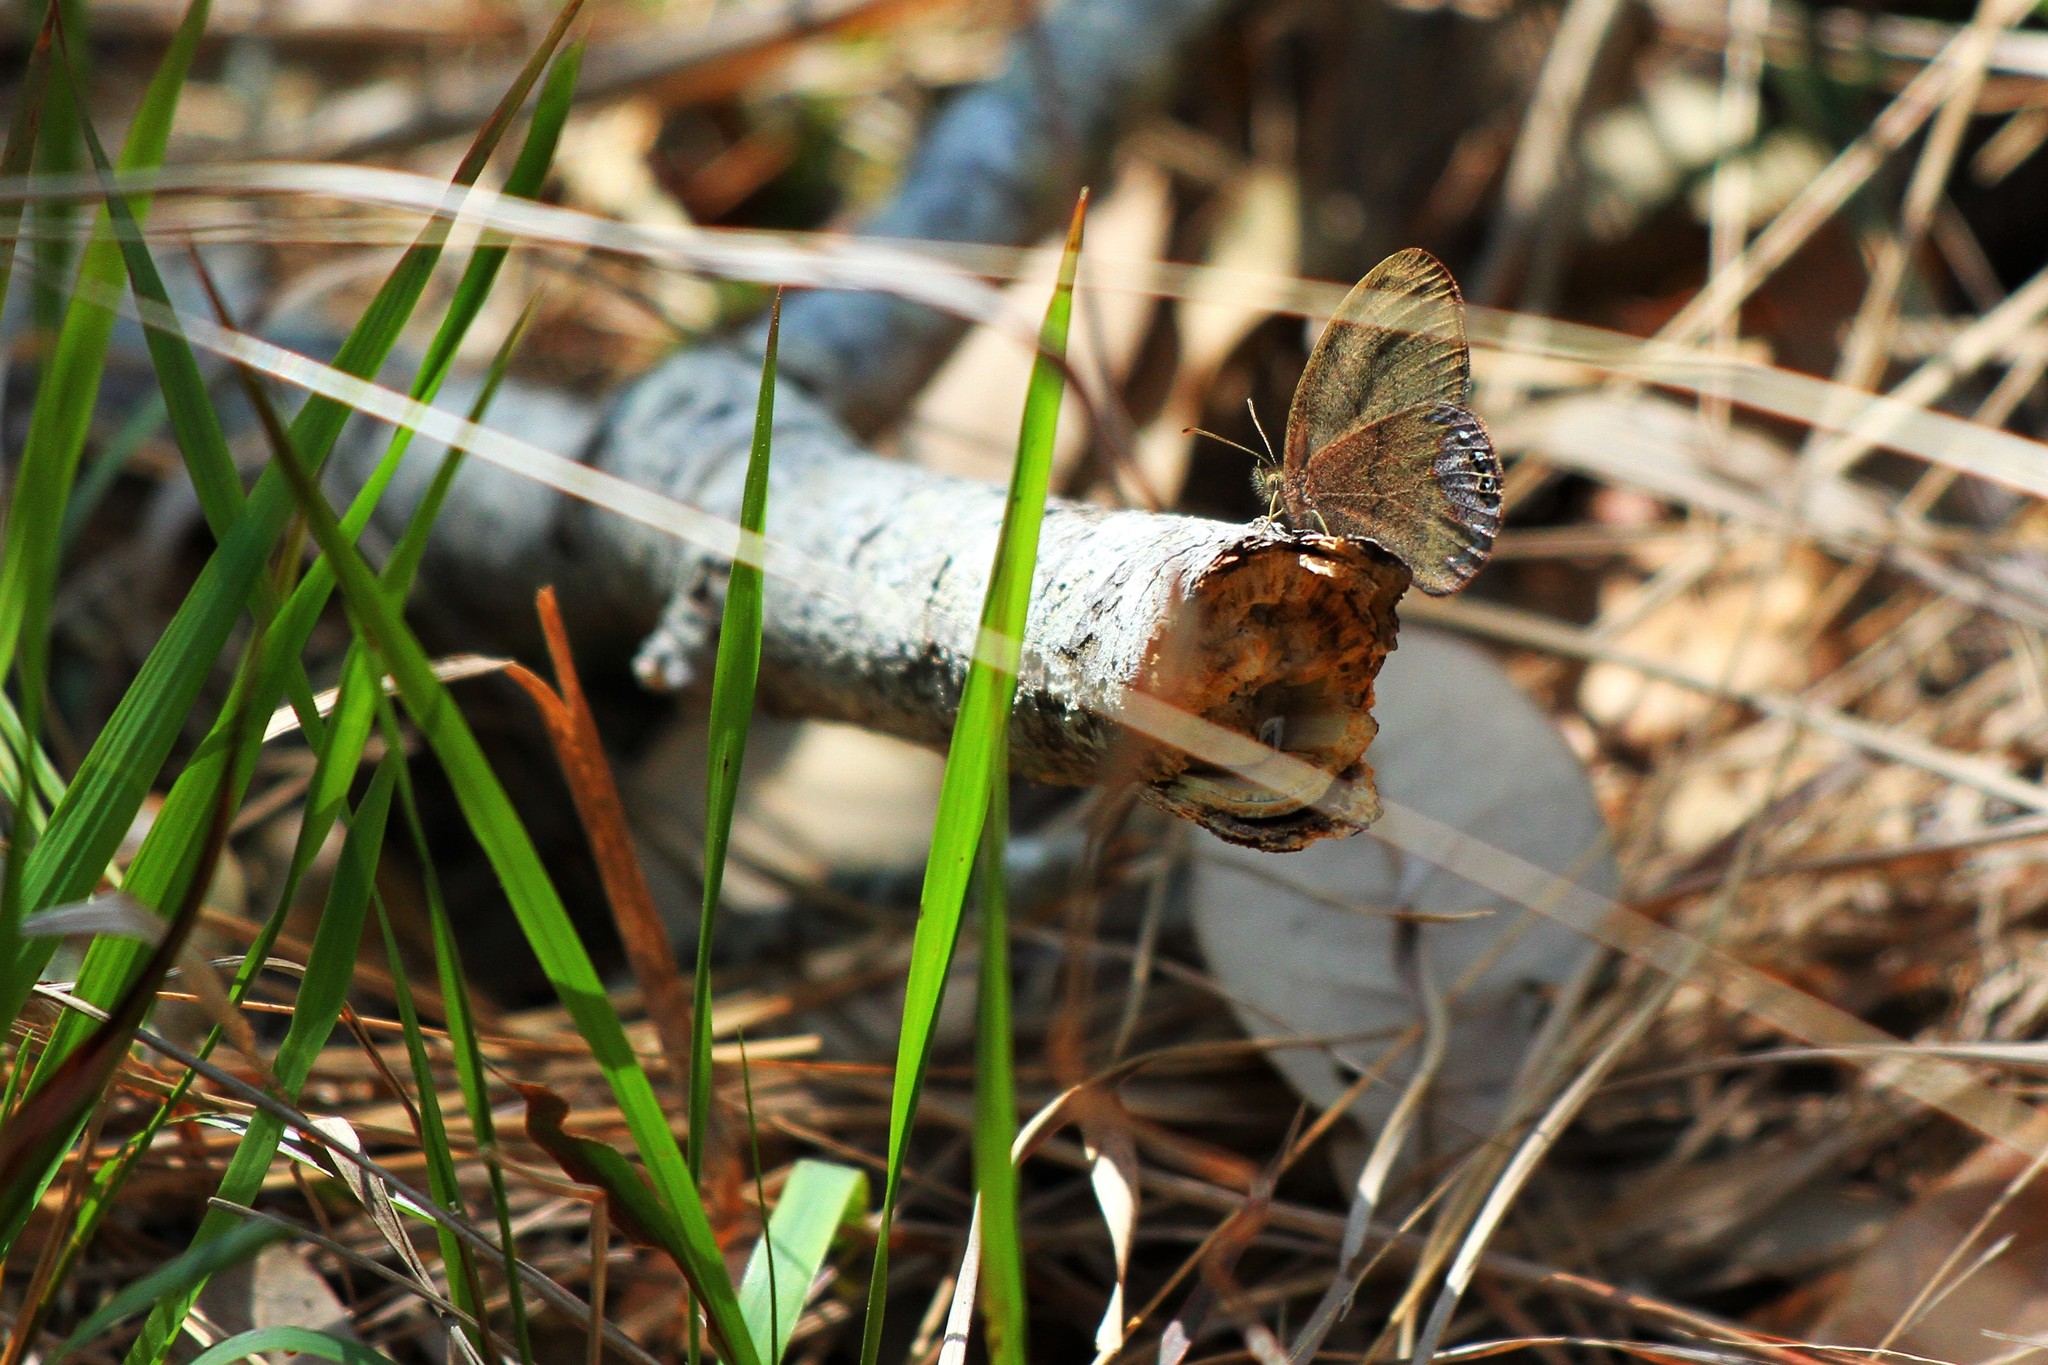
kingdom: Animalia
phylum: Arthropoda
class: Insecta
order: Lepidoptera
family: Nymphalidae
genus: Euptychia
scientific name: Euptychia cornelius
